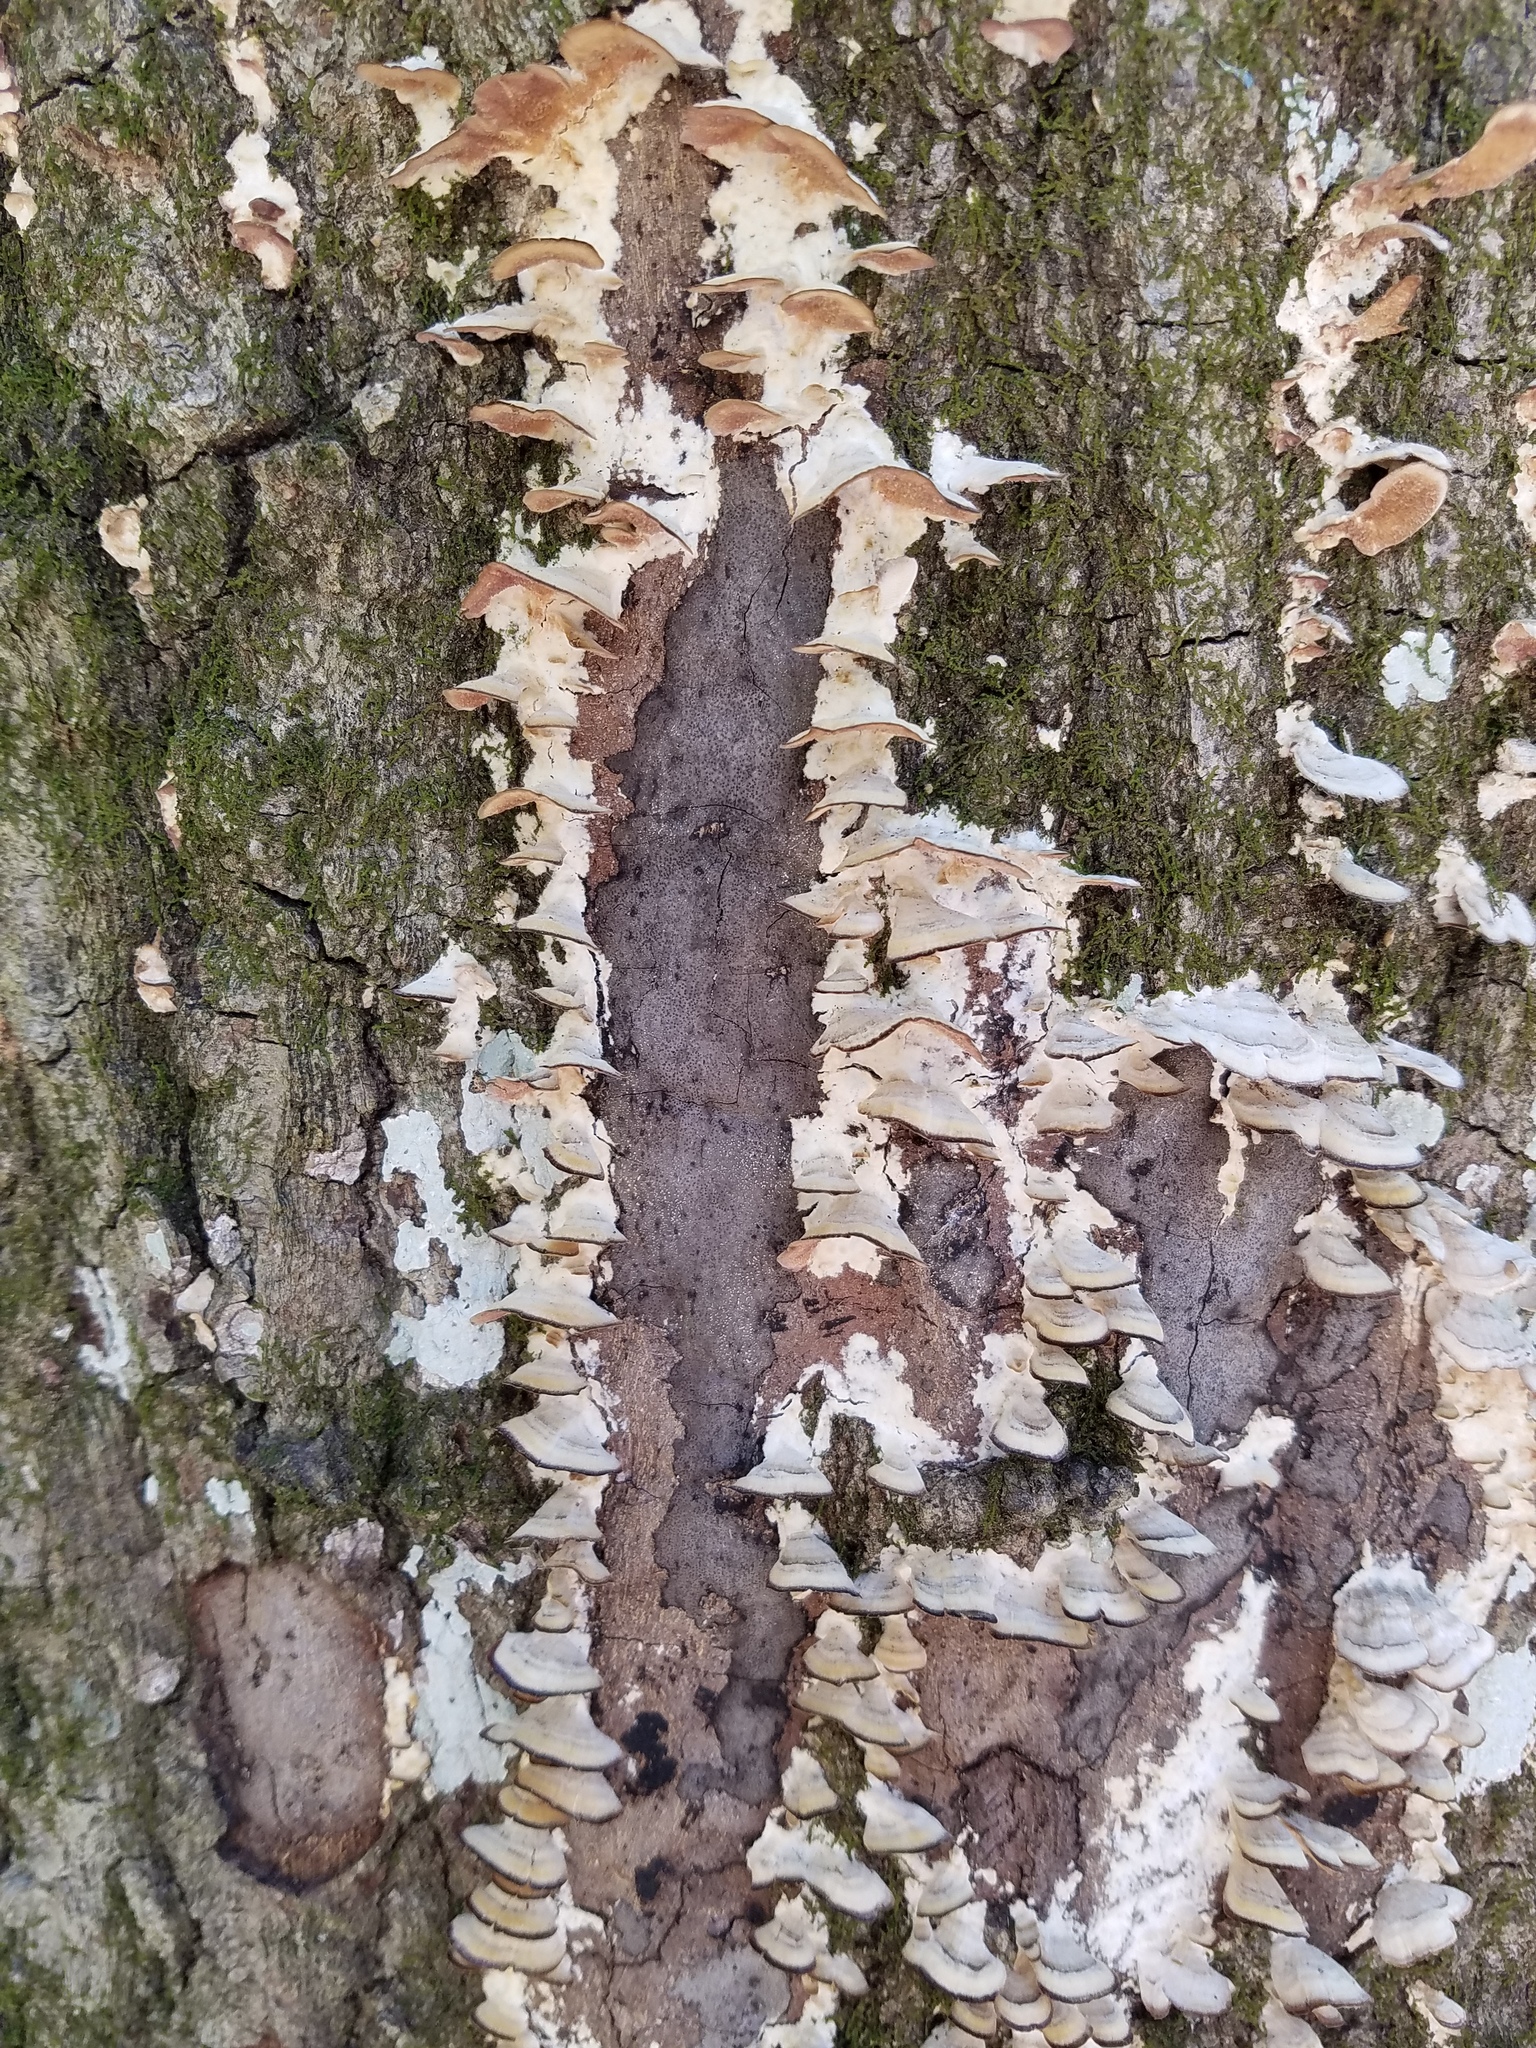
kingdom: Fungi
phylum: Basidiomycota
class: Agaricomycetes
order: Hymenochaetales
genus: Trichaptum
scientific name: Trichaptum biforme
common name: Violet-toothed polypore
